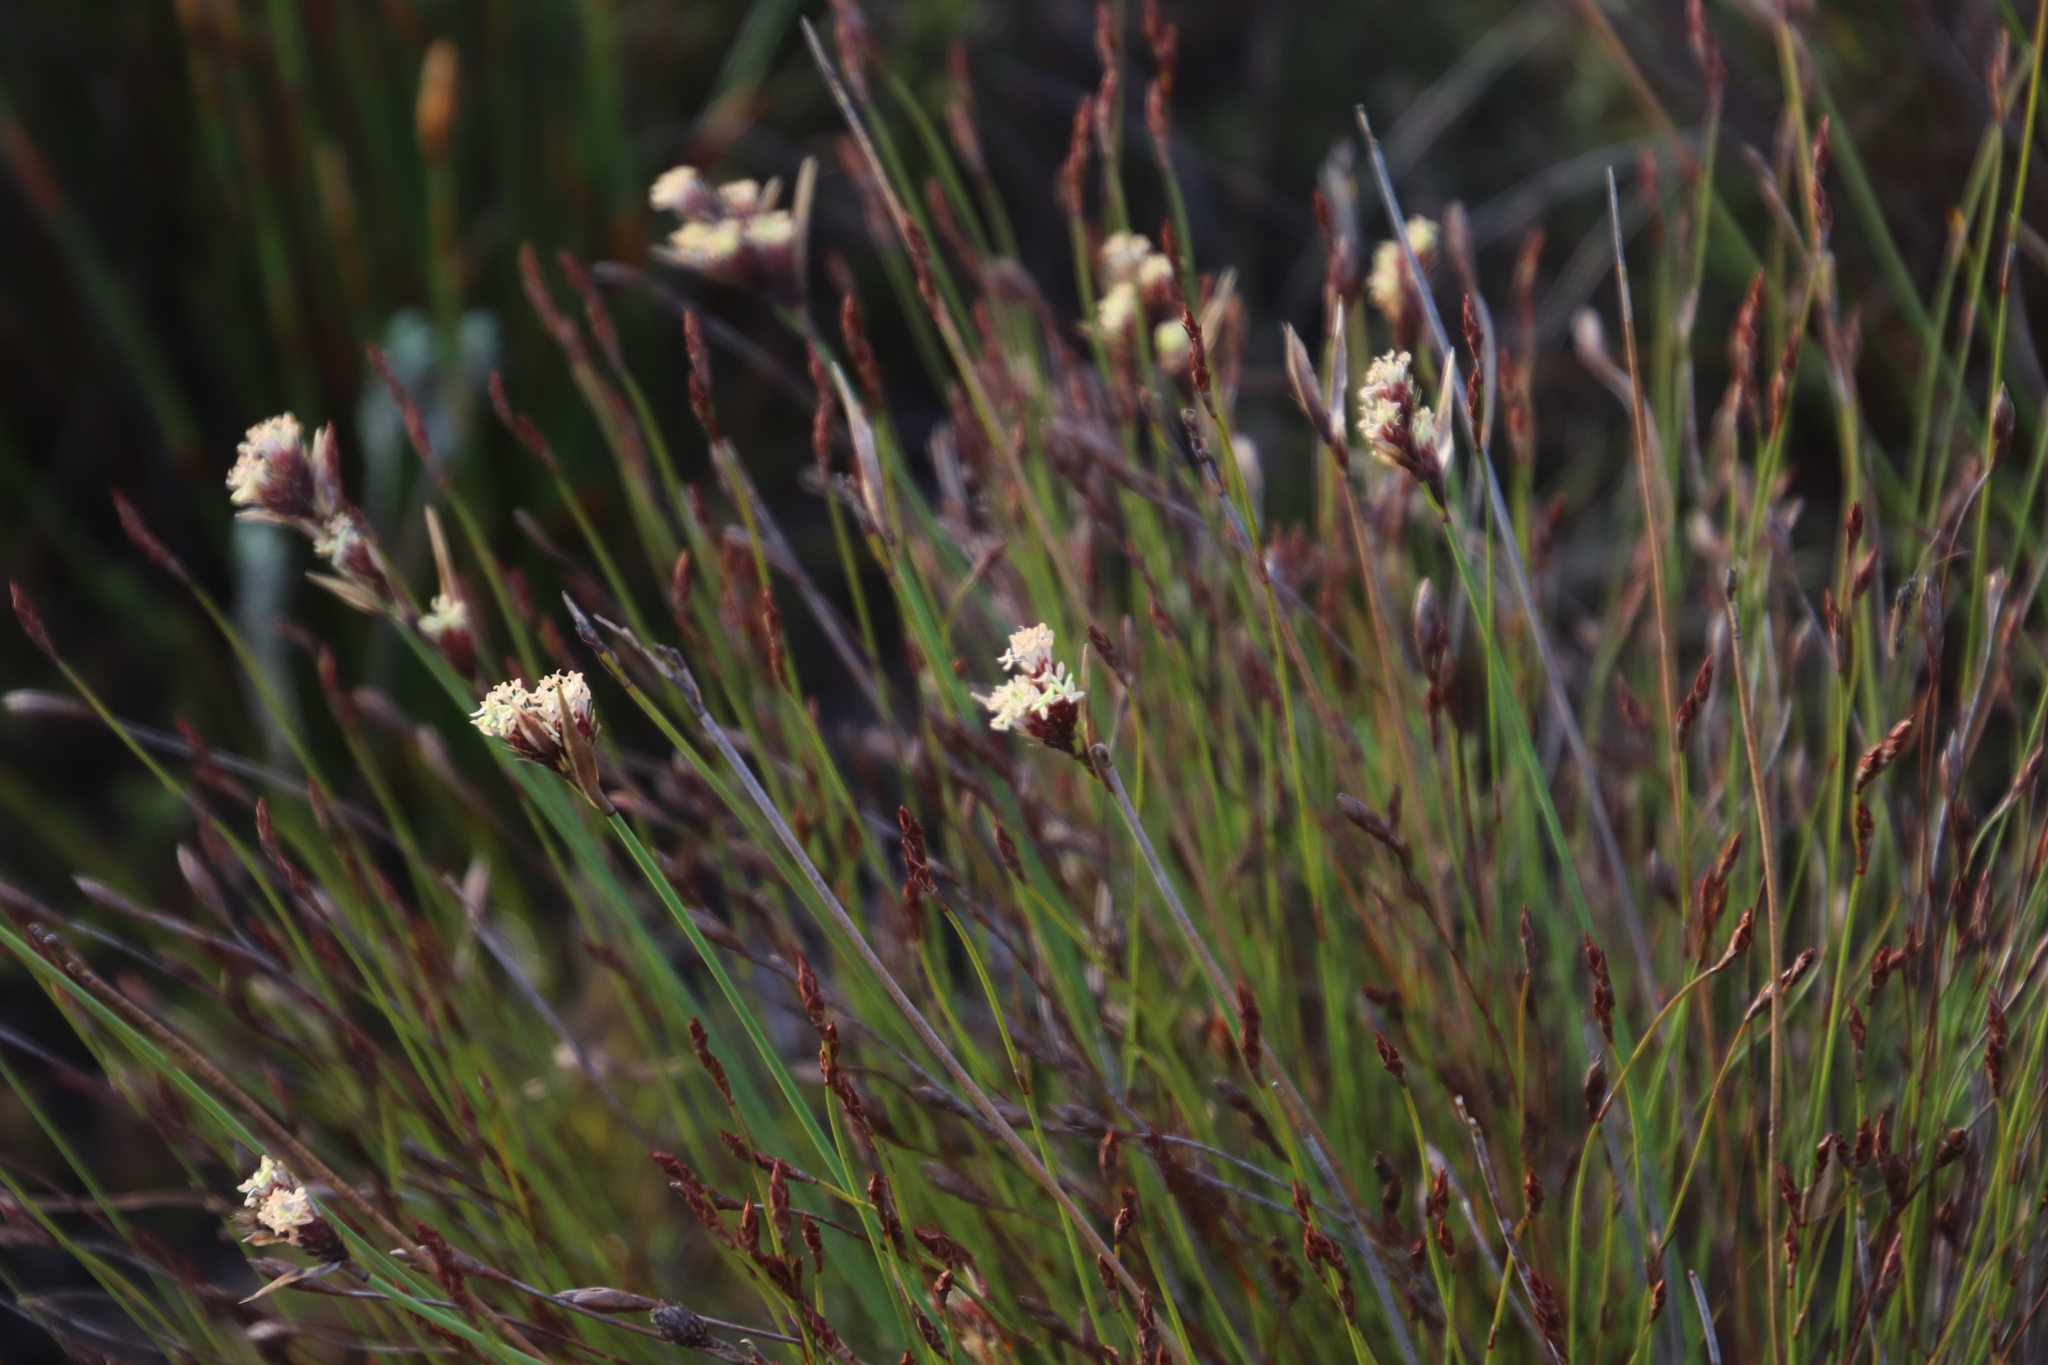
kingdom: Plantae
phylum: Tracheophyta
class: Liliopsida
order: Poales
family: Restionaceae
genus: Hypodiscus
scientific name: Hypodiscus aristatus
